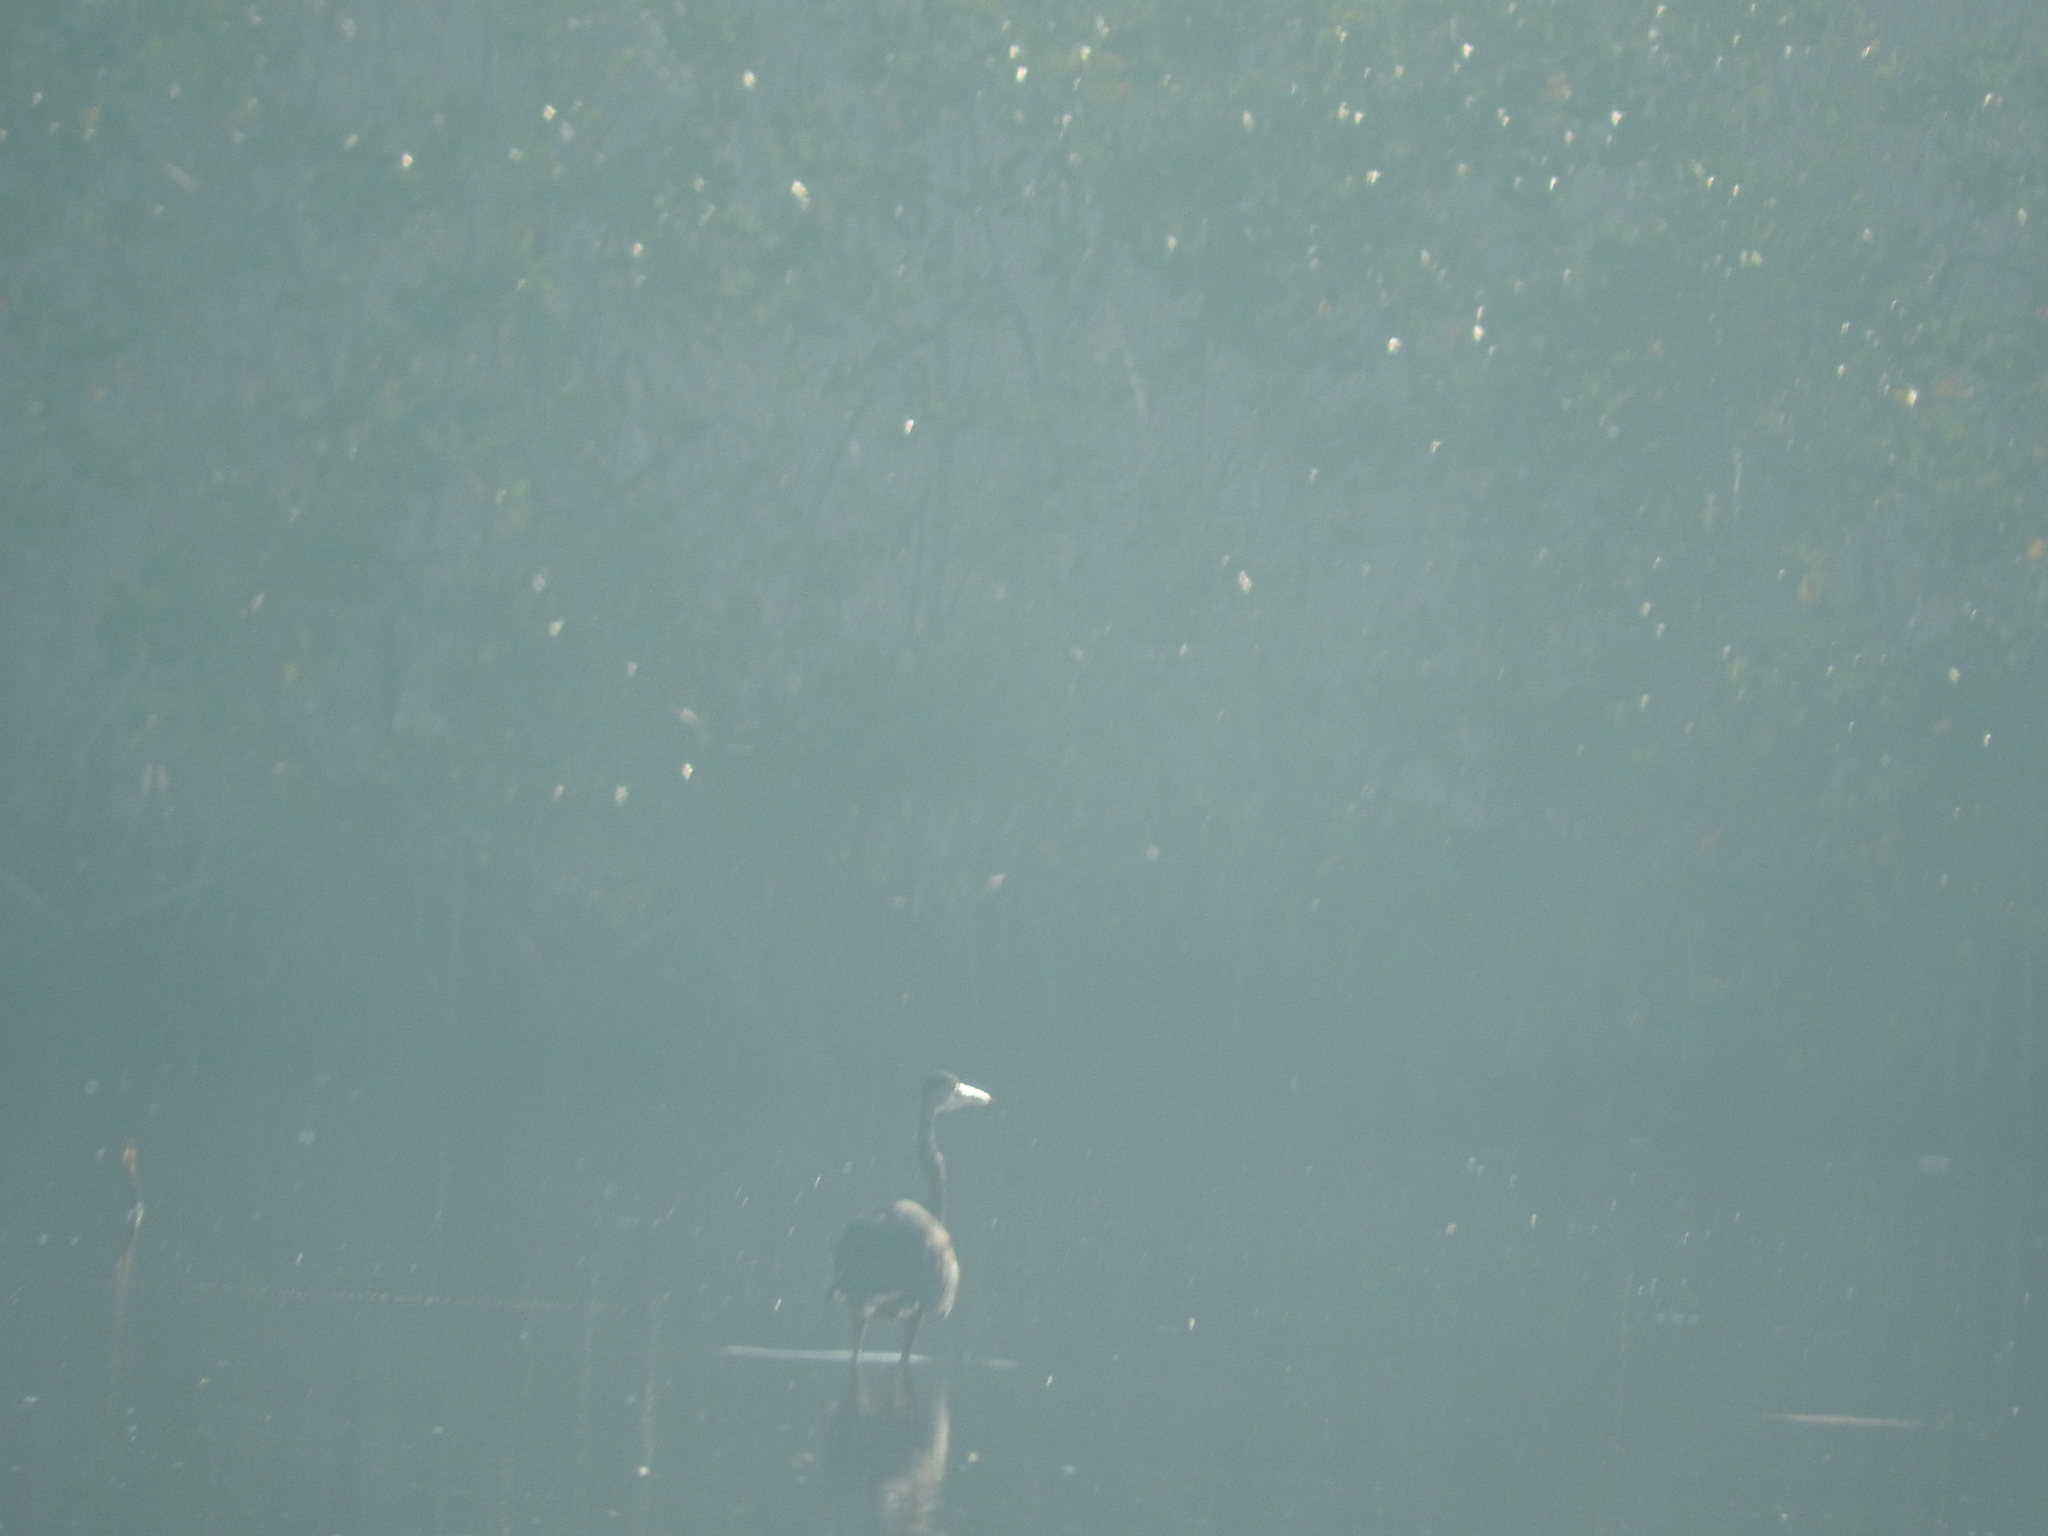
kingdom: Animalia
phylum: Chordata
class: Aves
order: Pelecaniformes
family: Ardeidae
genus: Ardea
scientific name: Ardea herodias
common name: Great blue heron
